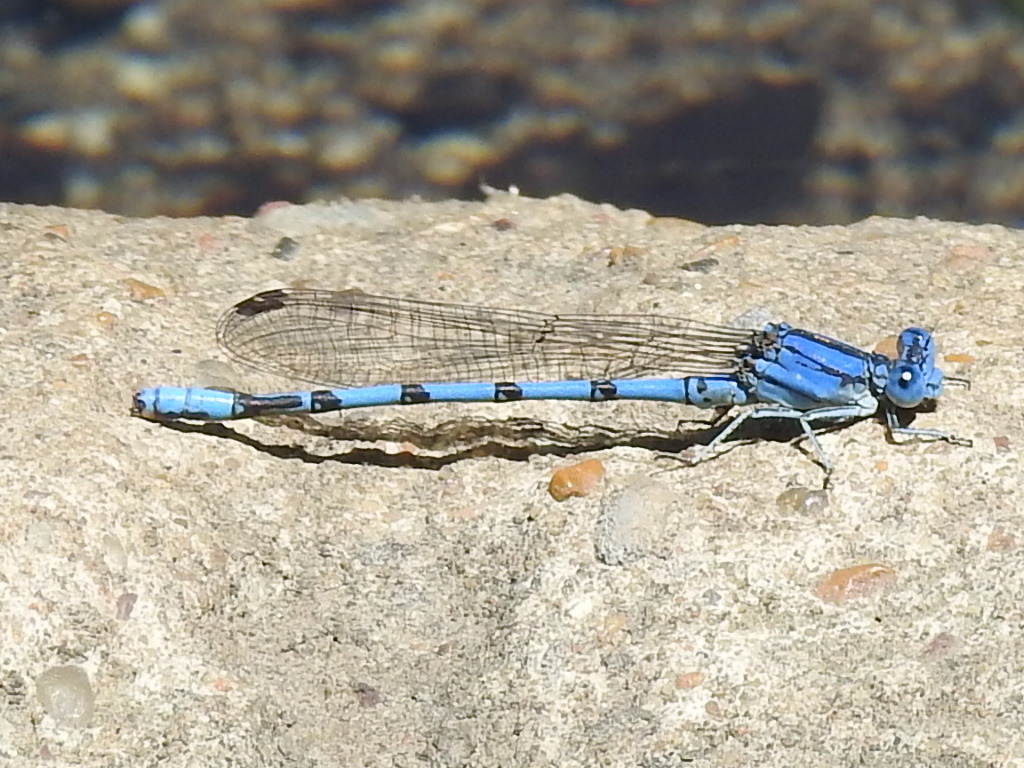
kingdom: Animalia
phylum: Arthropoda
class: Insecta
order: Odonata
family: Coenagrionidae
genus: Argia
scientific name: Argia nahuana
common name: Aztec dancer
